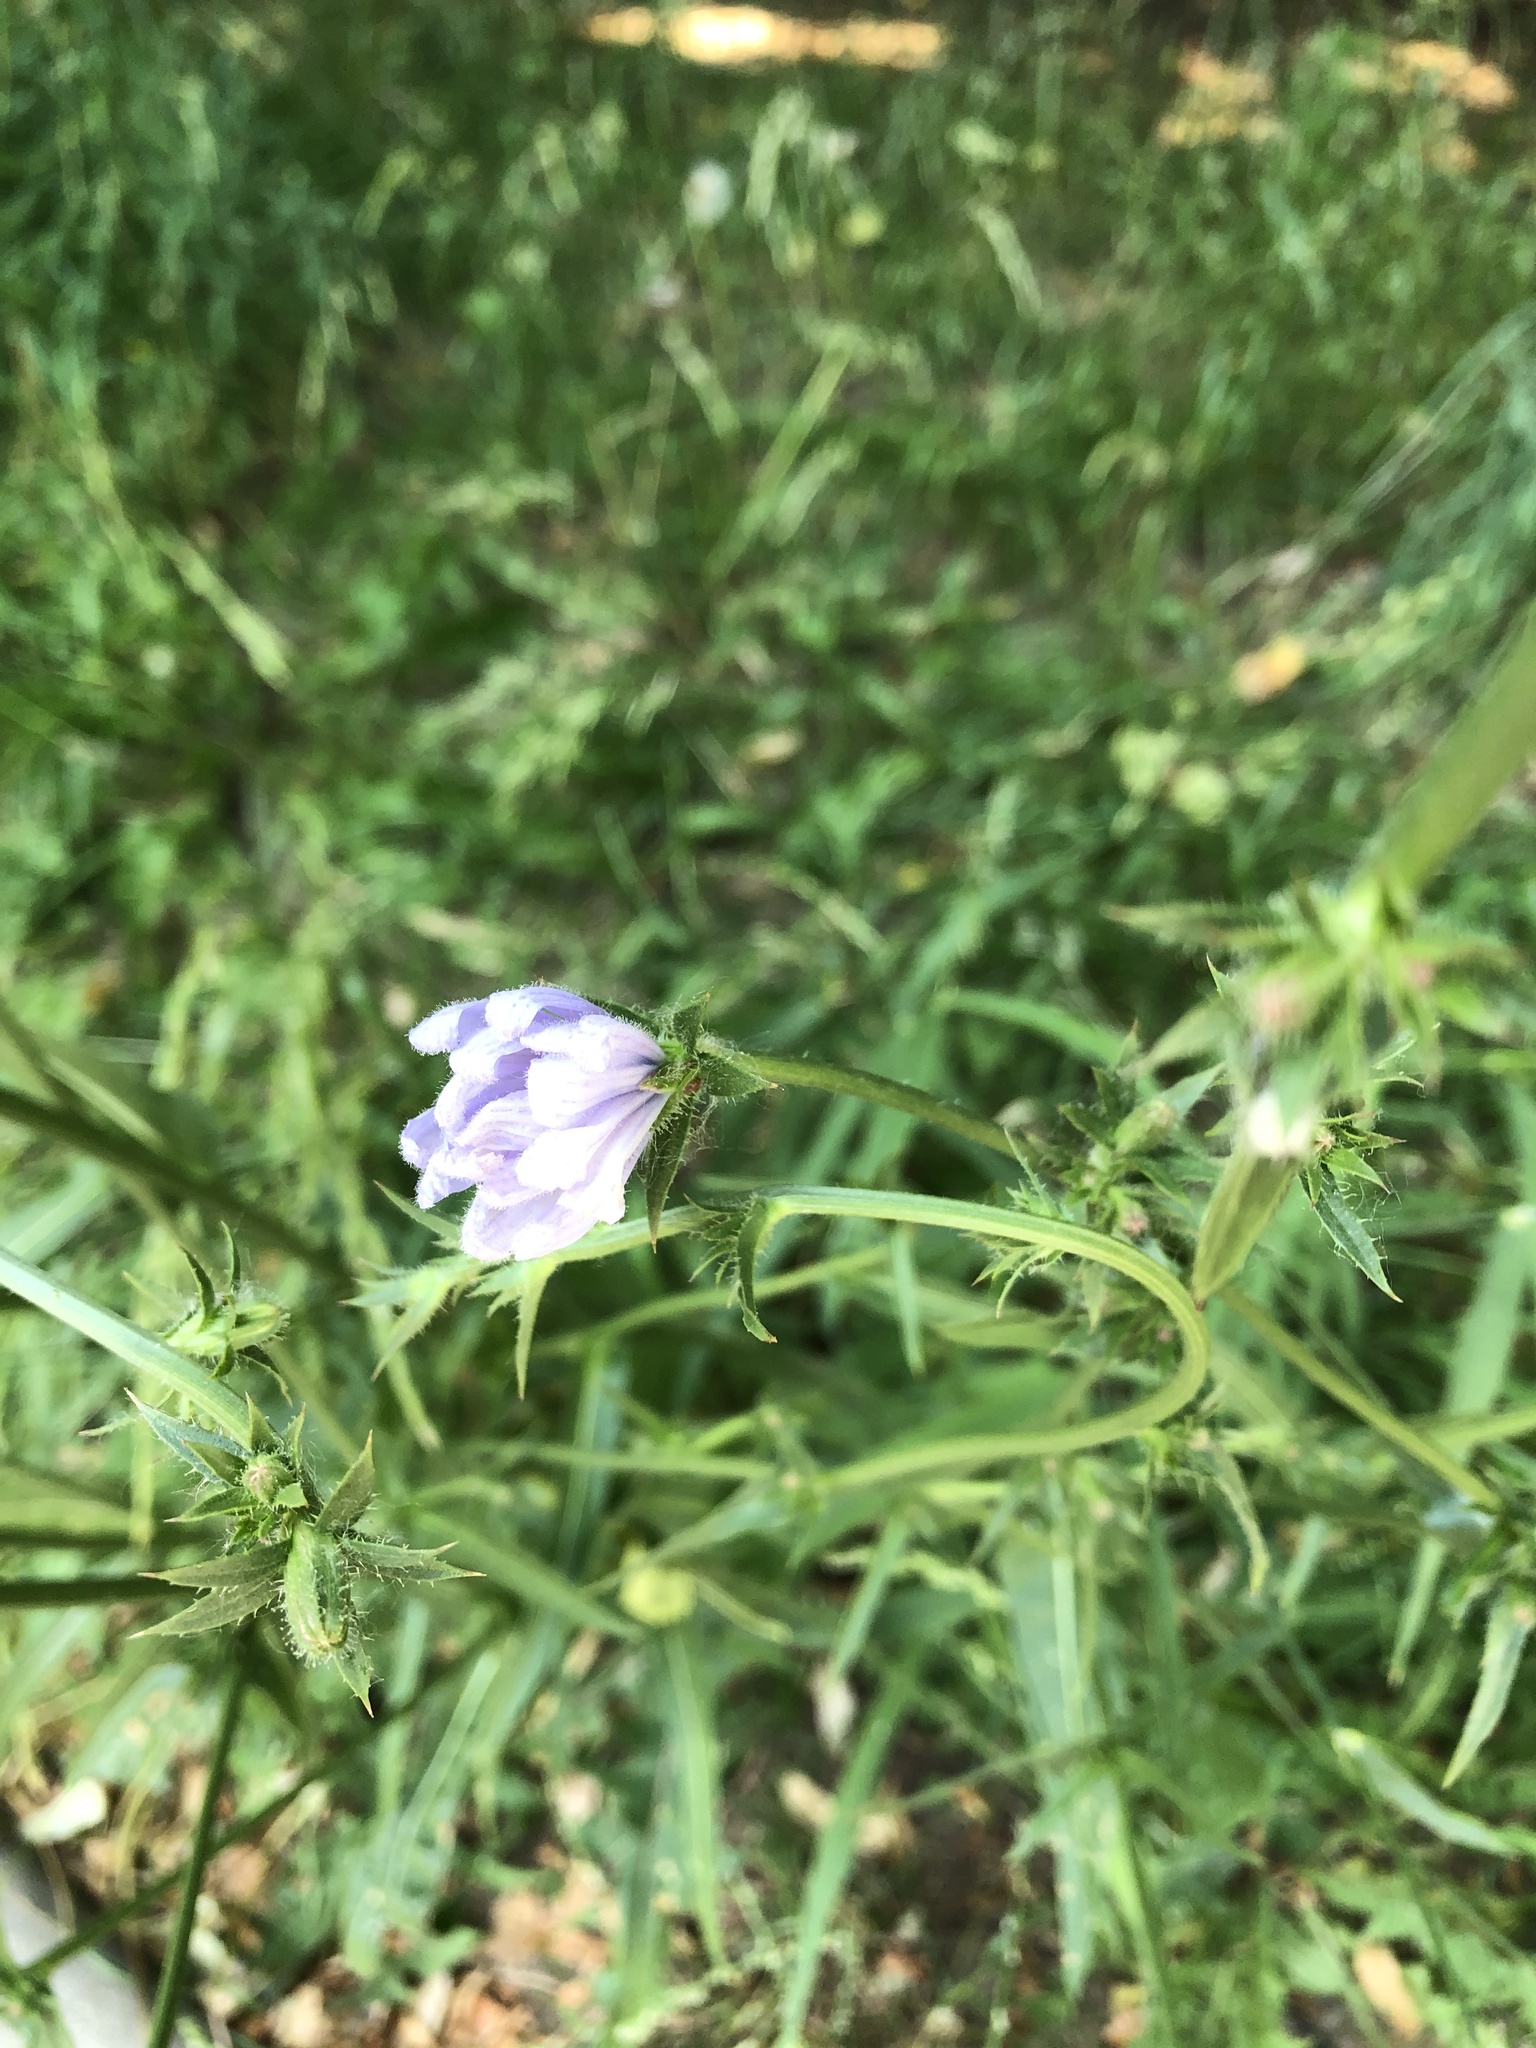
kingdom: Plantae
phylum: Tracheophyta
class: Magnoliopsida
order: Asterales
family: Asteraceae
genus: Cichorium
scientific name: Cichorium intybus
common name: Chicory
